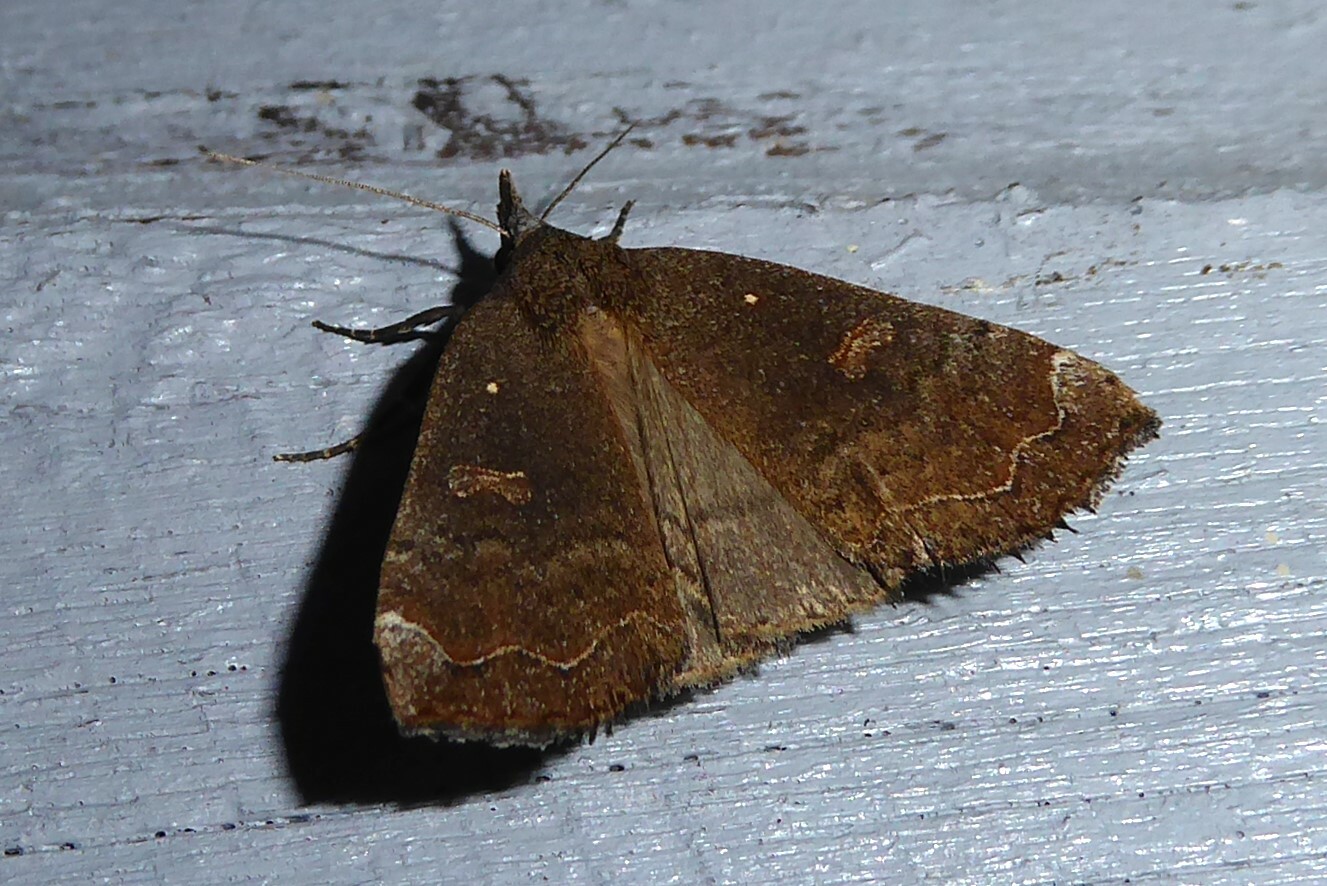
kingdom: Animalia
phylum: Arthropoda
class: Insecta
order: Lepidoptera
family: Erebidae
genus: Rhapsa
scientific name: Rhapsa scotosialis
